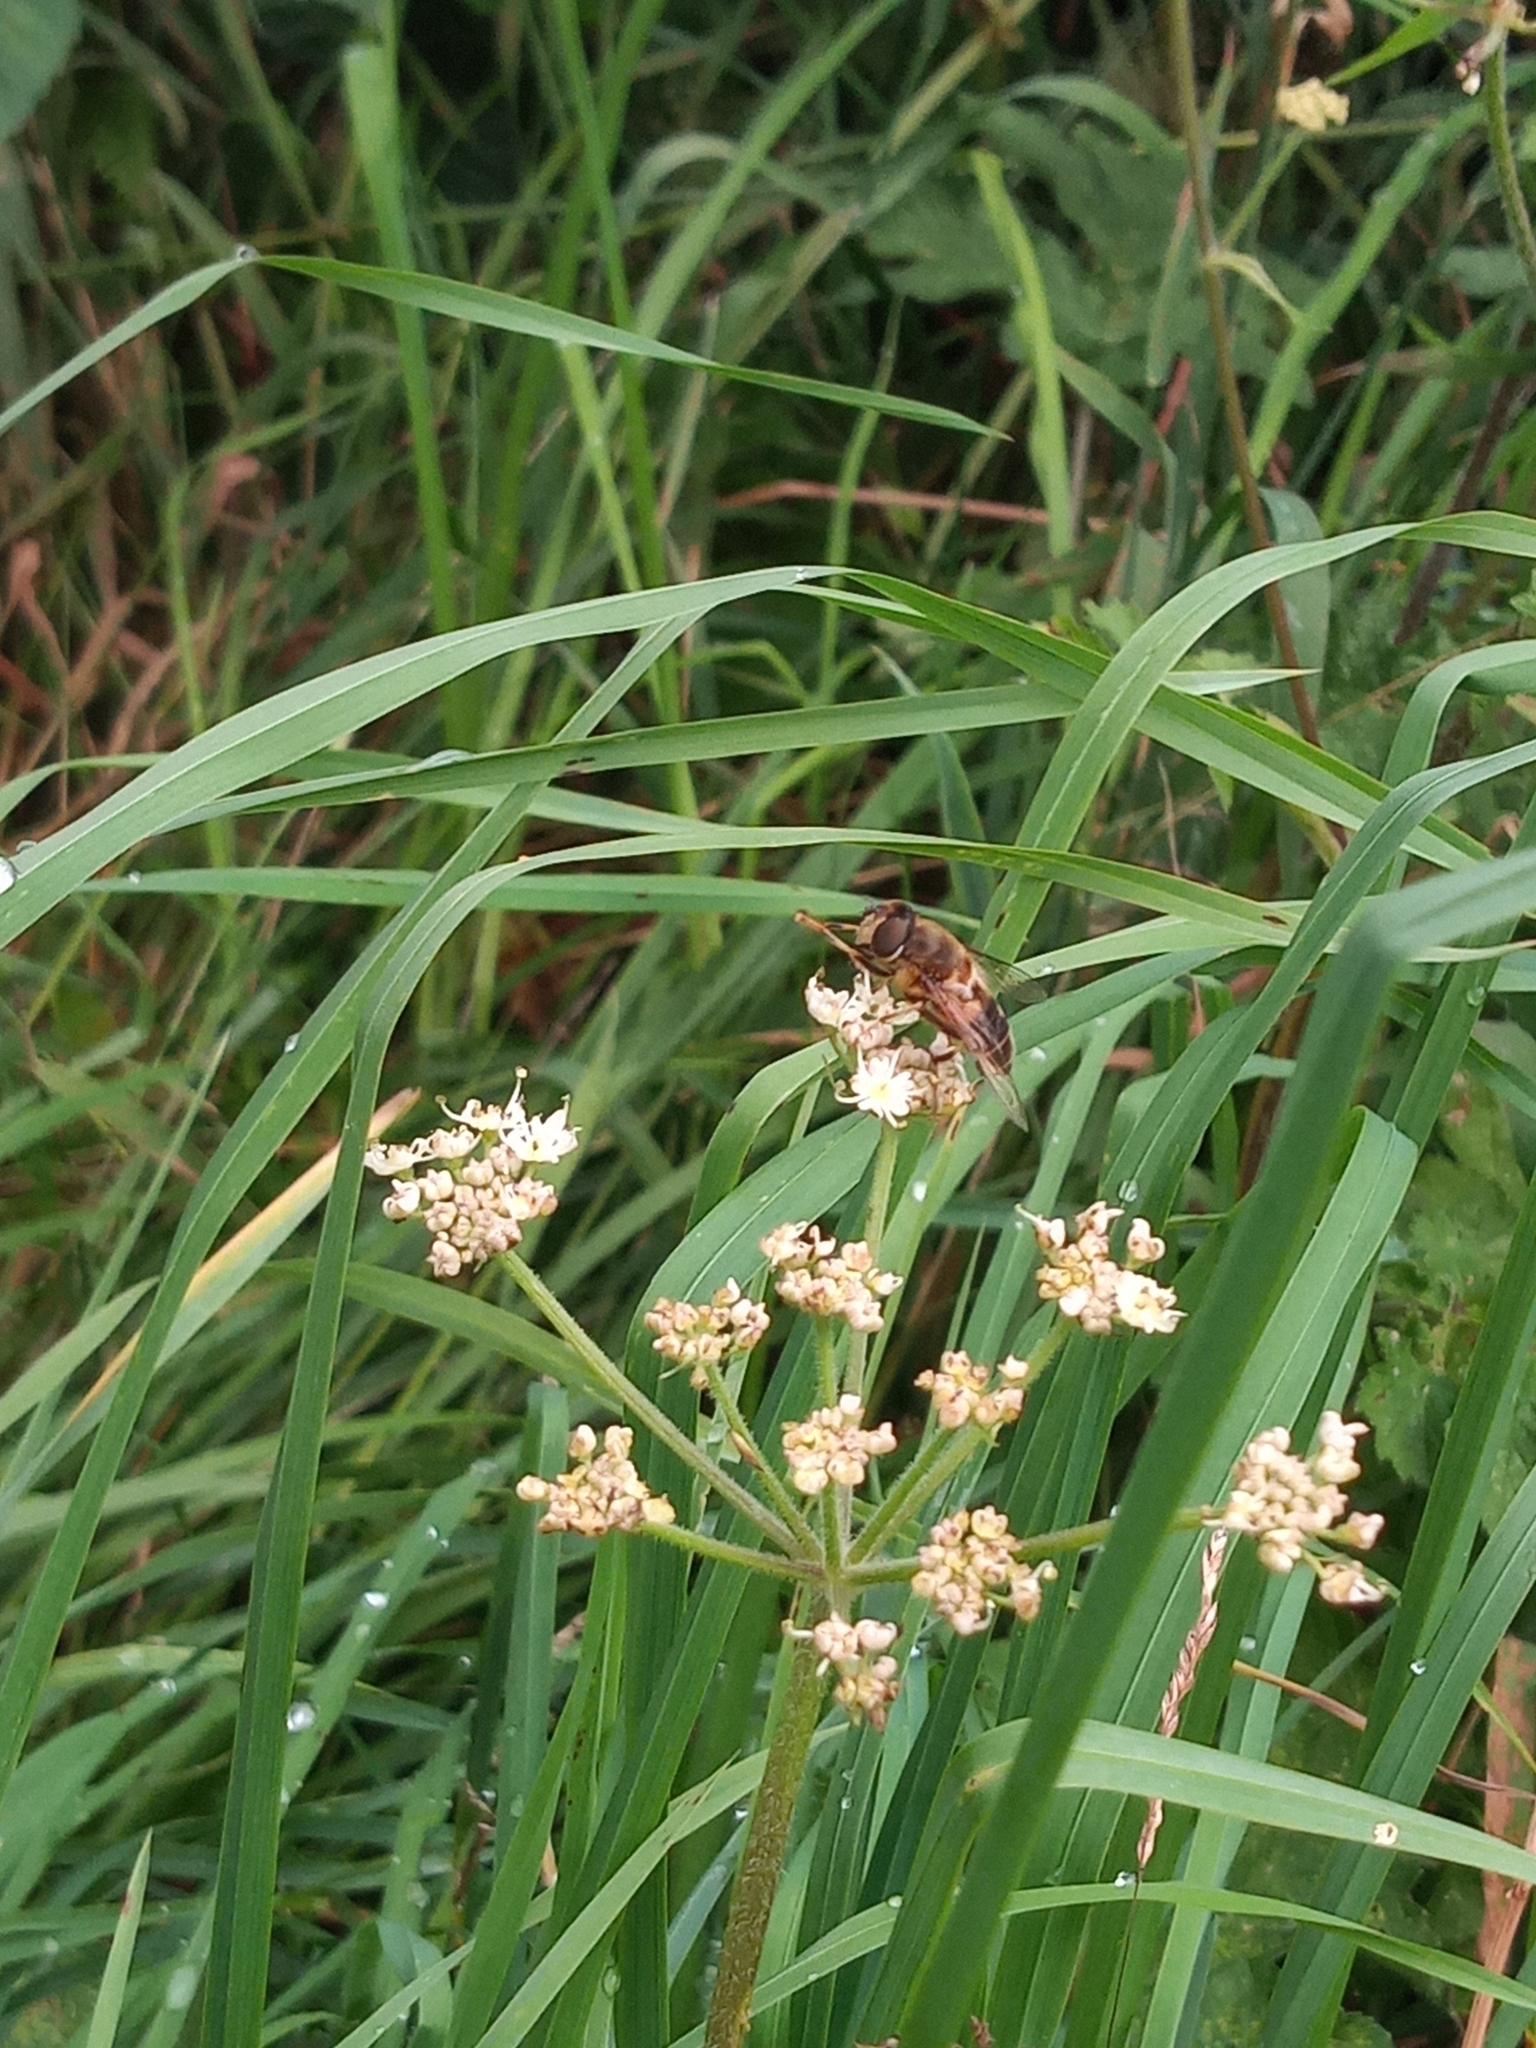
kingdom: Animalia
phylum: Arthropoda
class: Insecta
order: Diptera
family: Syrphidae
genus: Eoseristalis
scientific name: Eoseristalis
